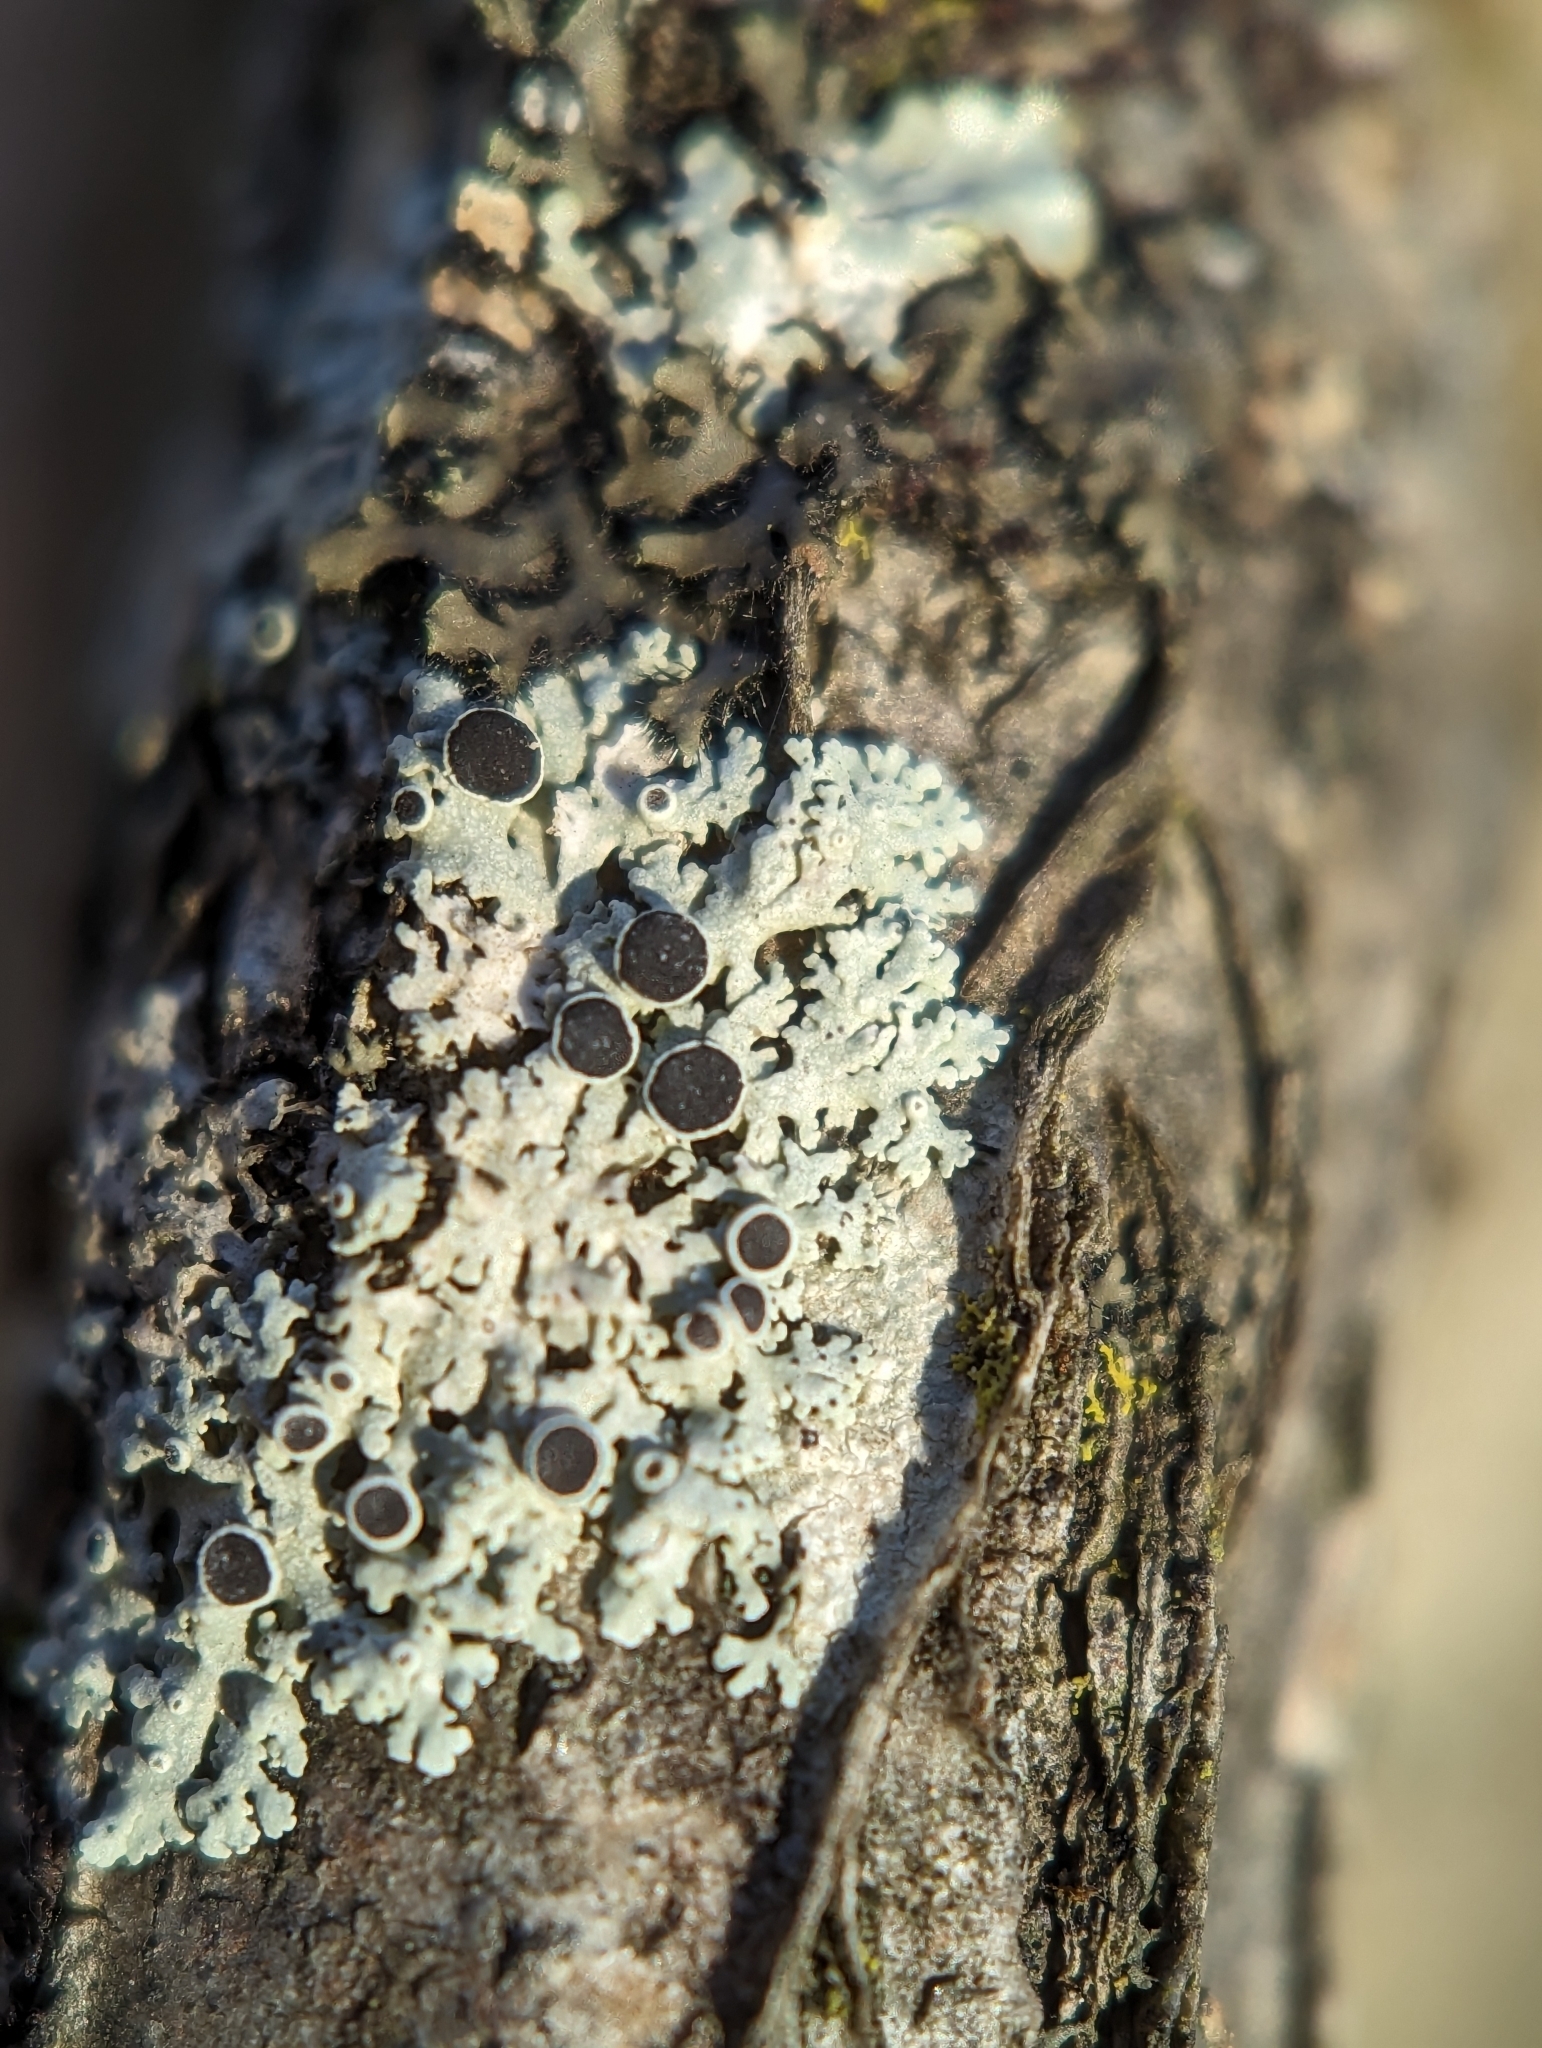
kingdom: Fungi
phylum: Ascomycota
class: Lecanoromycetes
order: Caliciales
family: Physciaceae
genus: Physcia
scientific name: Physcia stellaris
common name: Star rosette lichen
